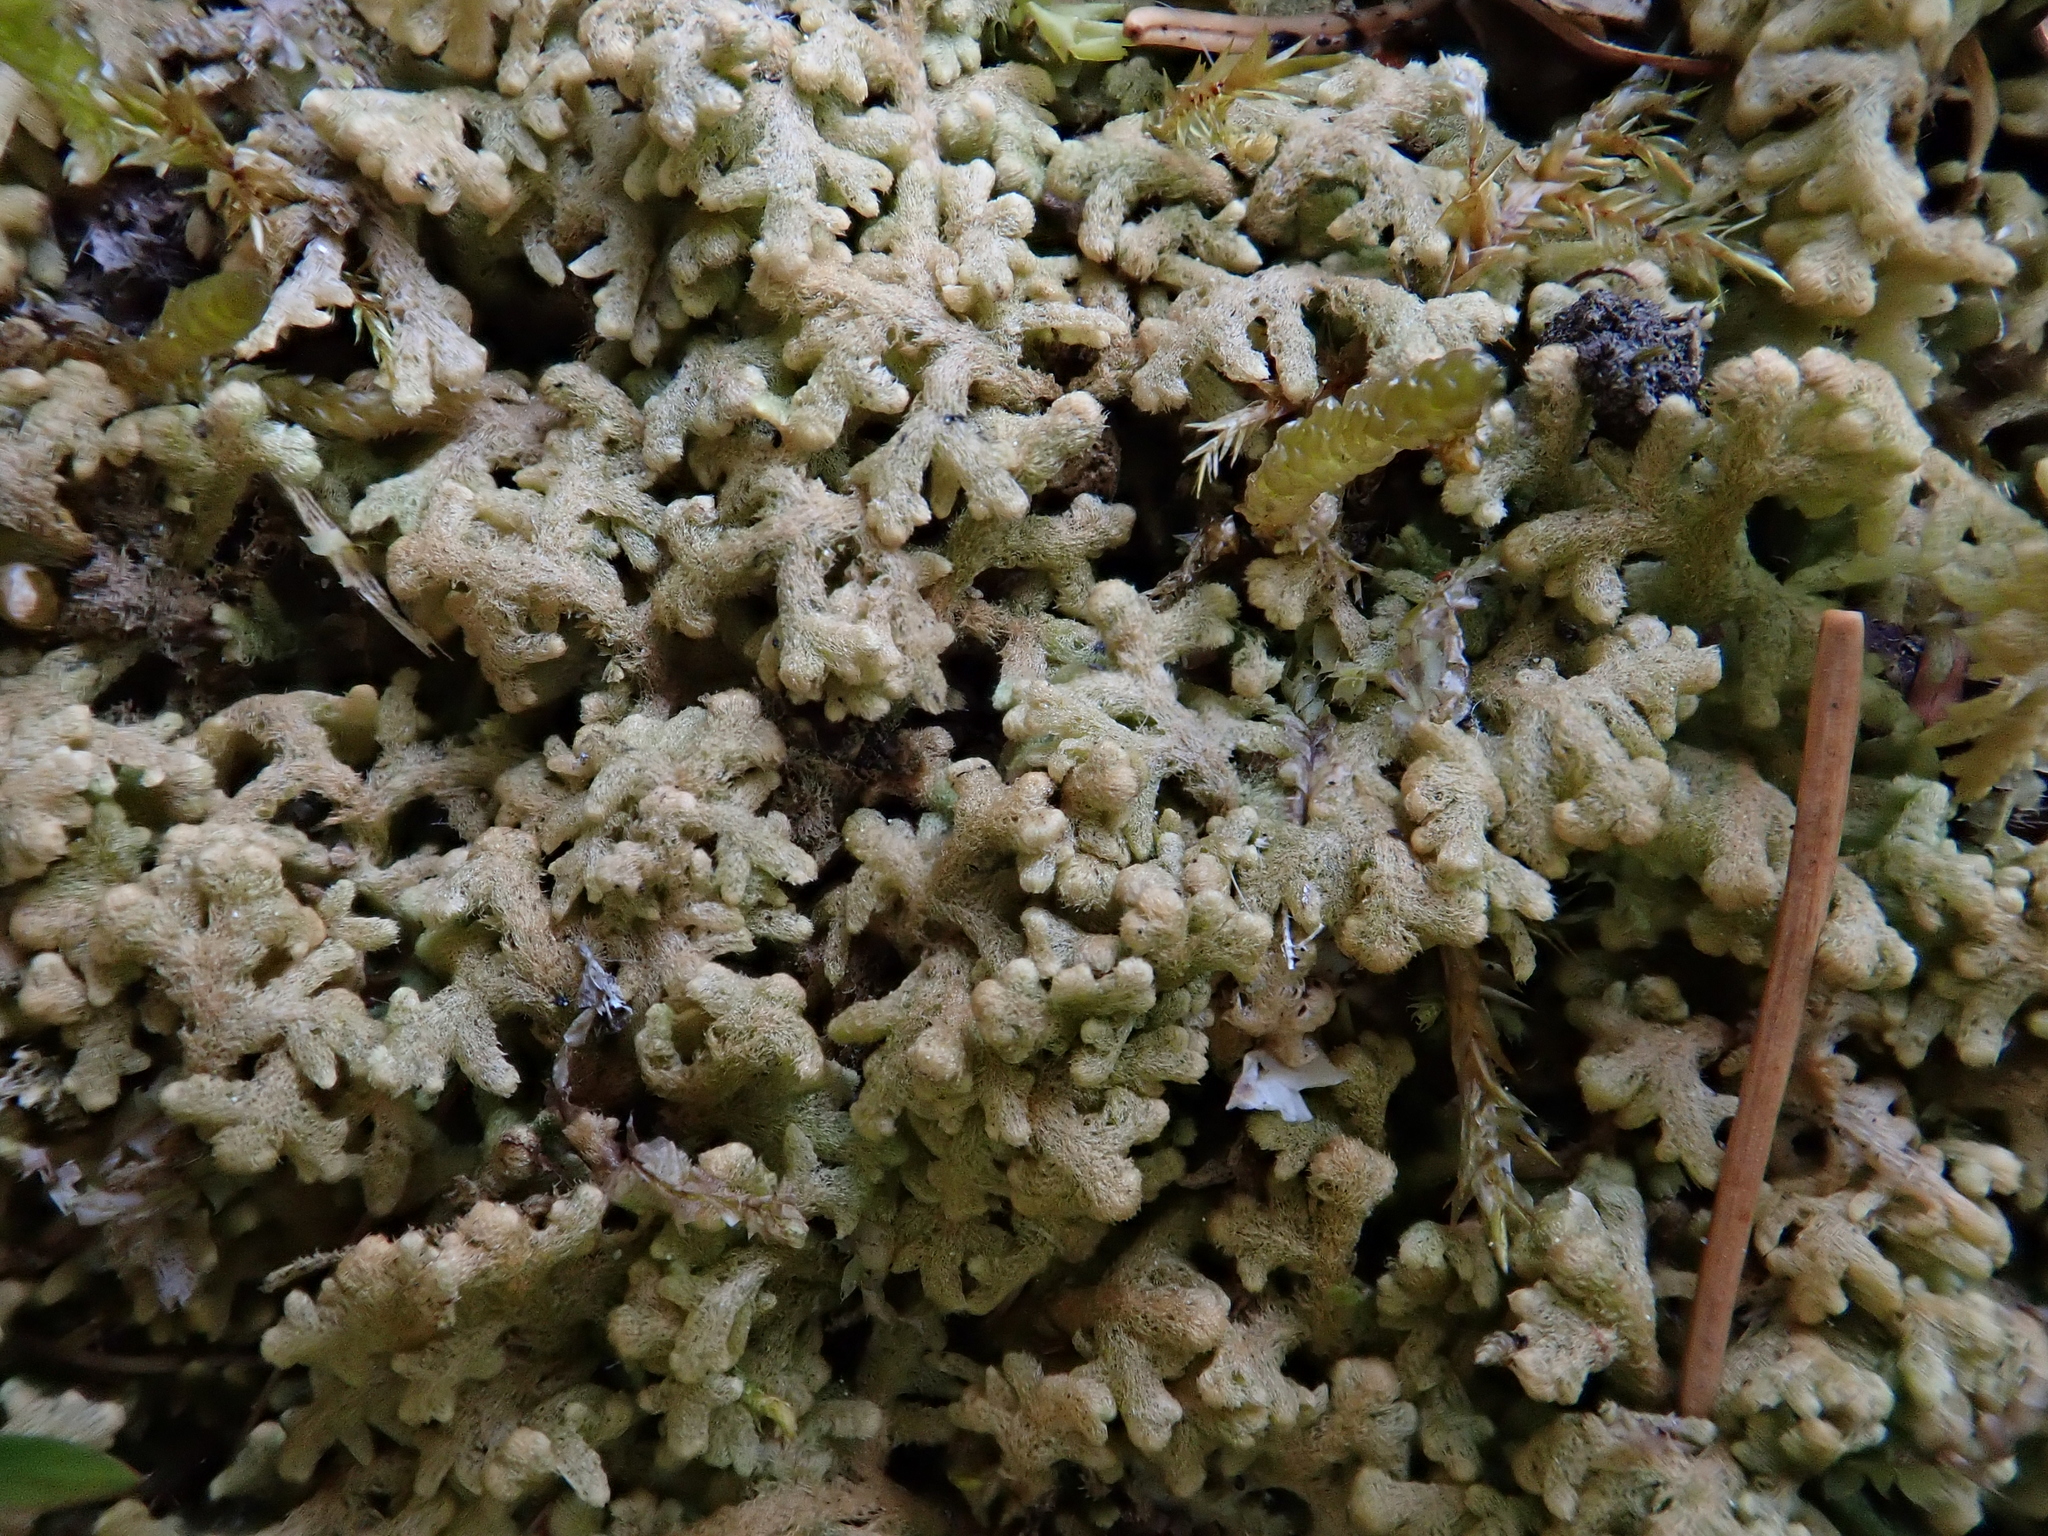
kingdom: Plantae
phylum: Marchantiophyta
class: Jungermanniopsida
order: Jungermanniales
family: Trichocoleaceae
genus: Trichocolea
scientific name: Trichocolea tomentella
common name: Woolly liverwort
